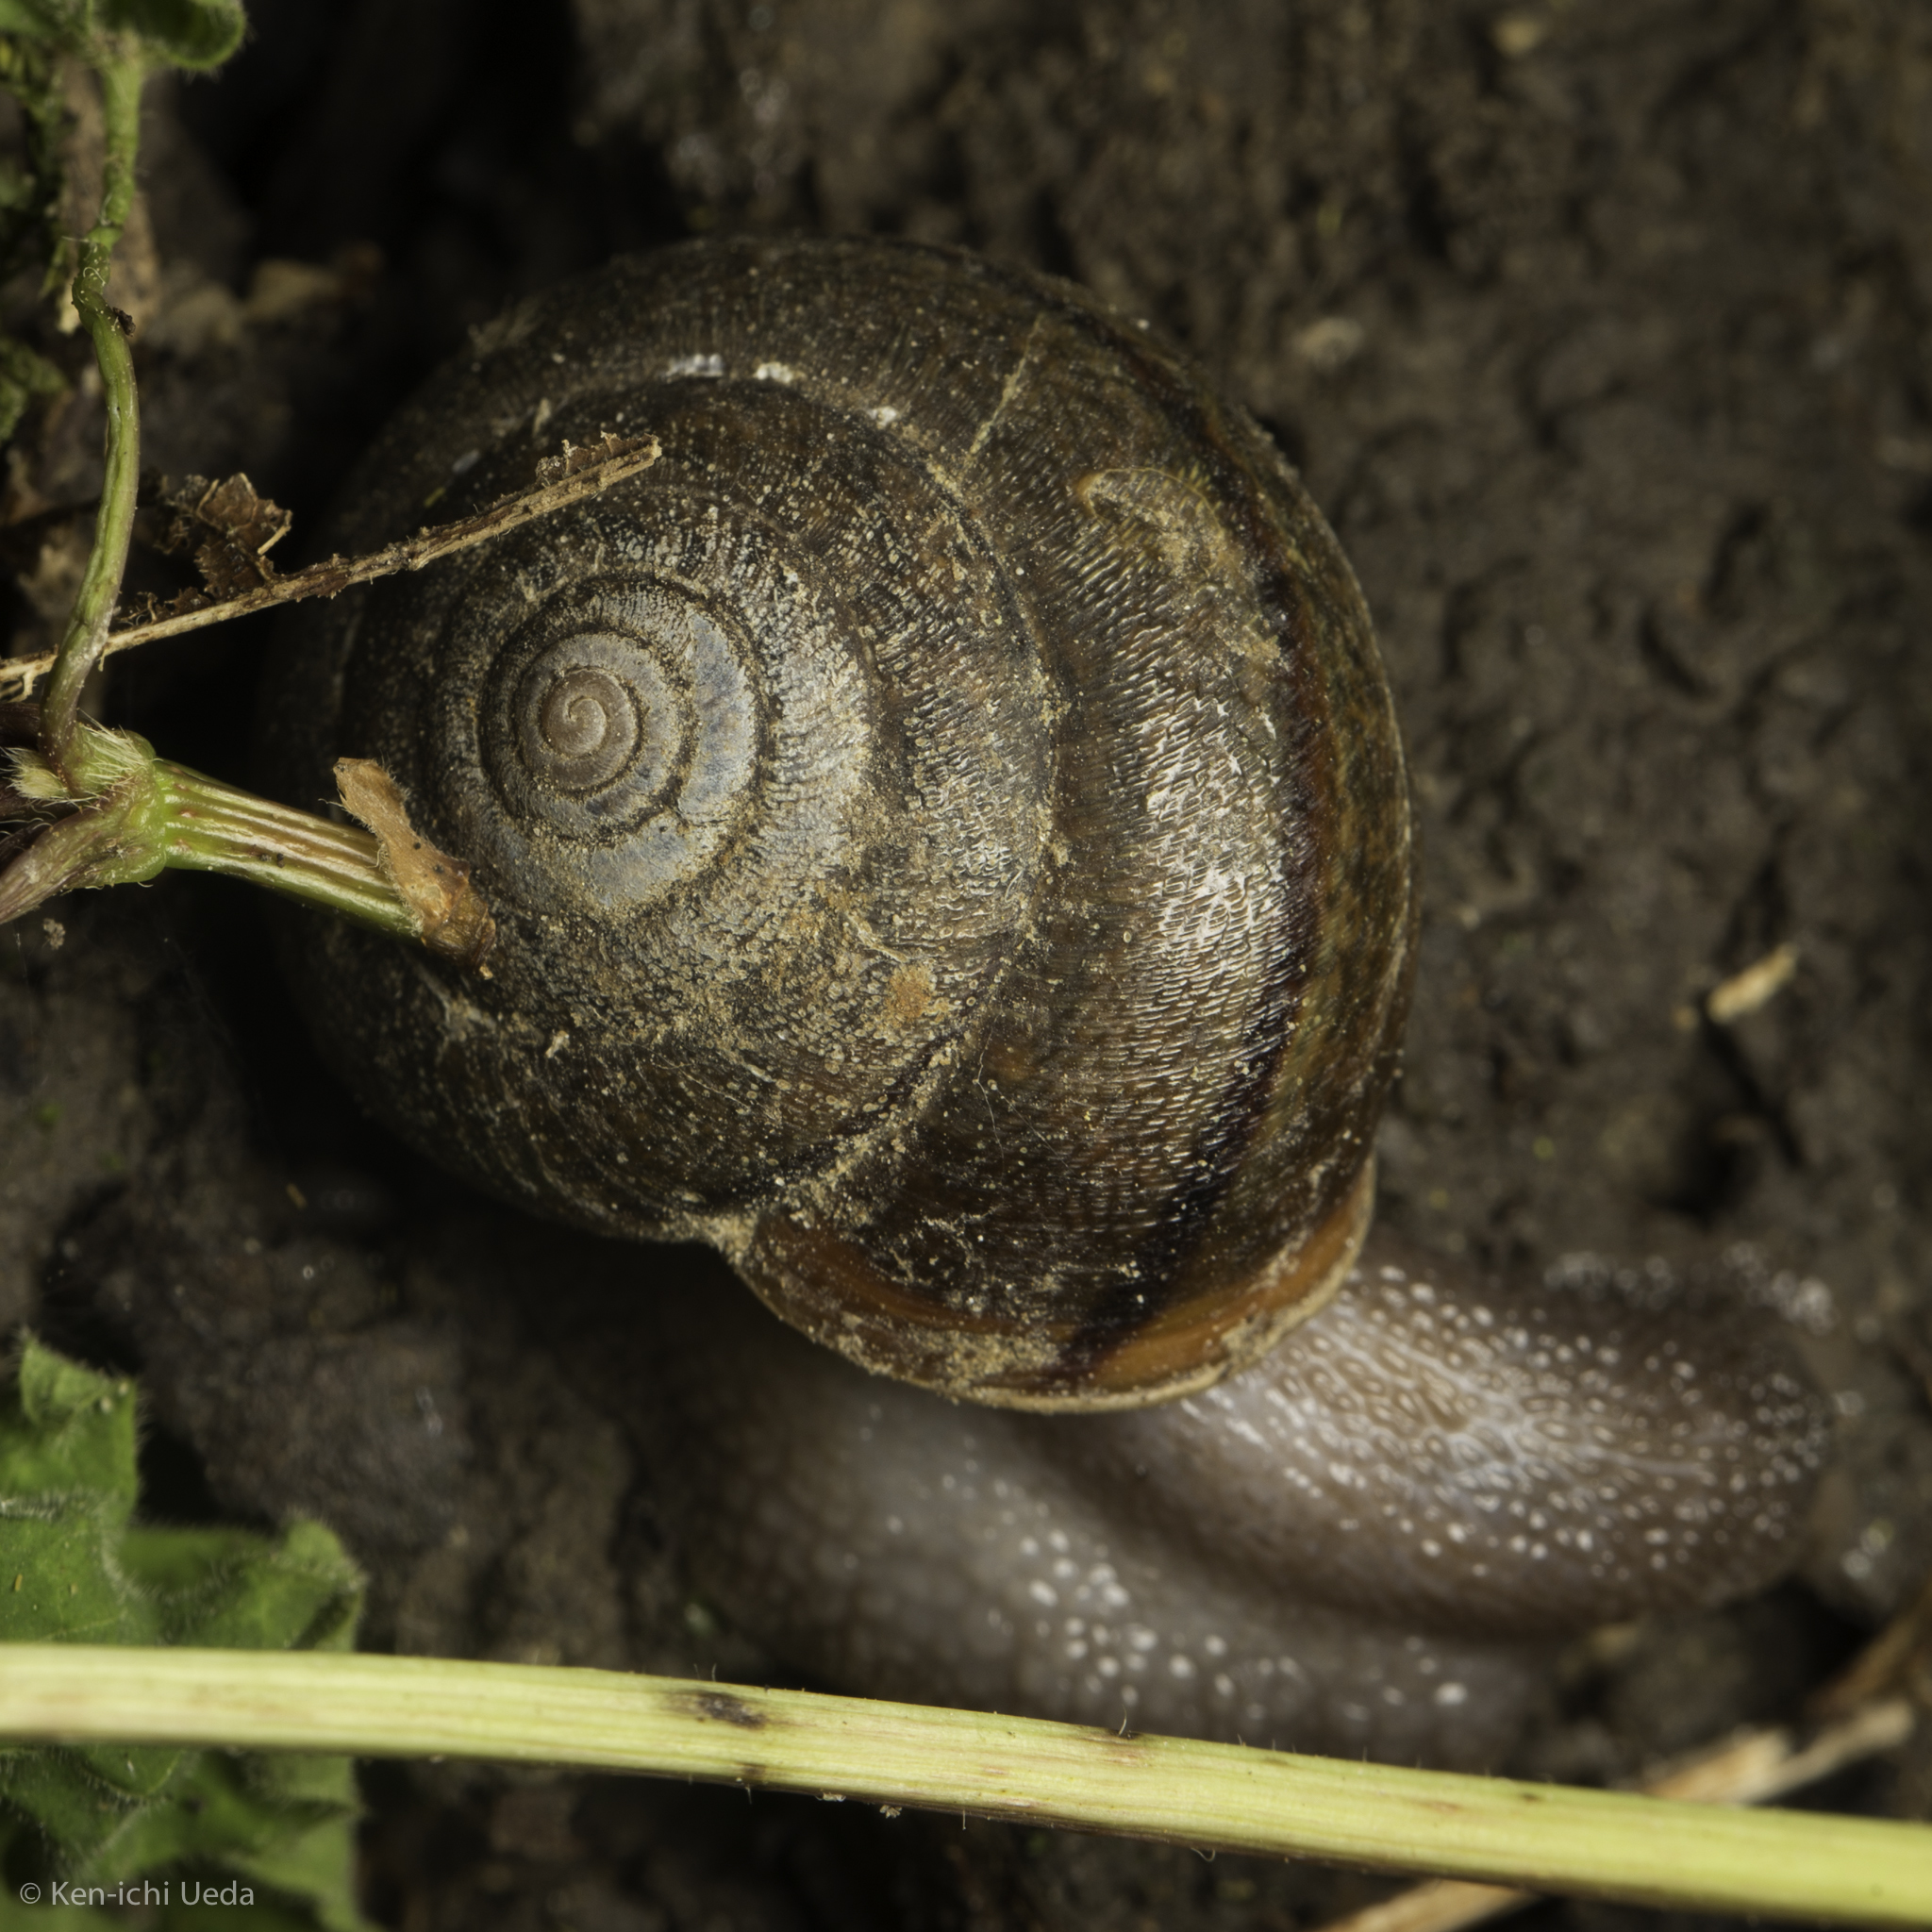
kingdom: Animalia
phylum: Mollusca
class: Gastropoda
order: Stylommatophora
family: Xanthonychidae
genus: Helminthoglypta
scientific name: Helminthoglypta diabloensis
